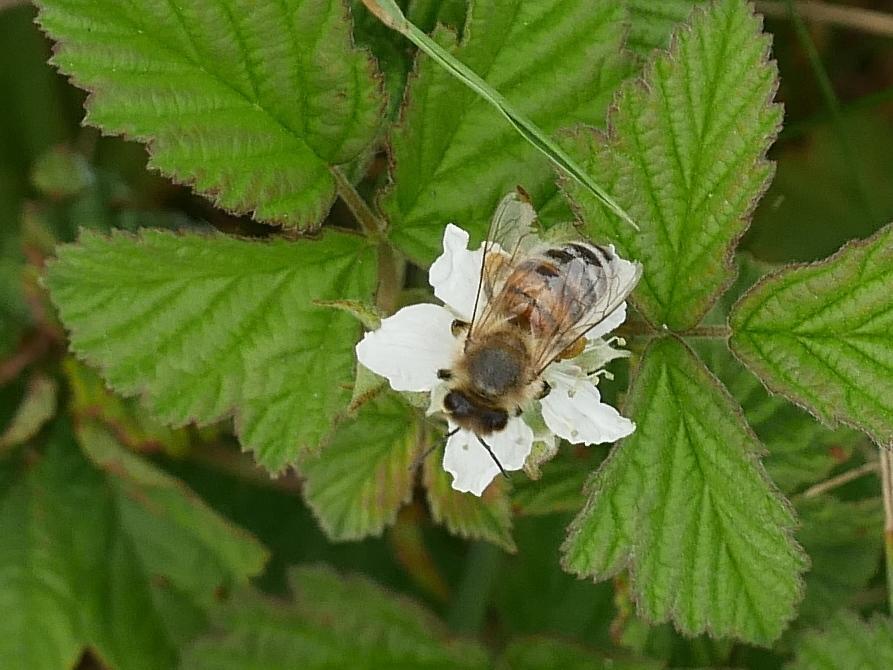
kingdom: Animalia
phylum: Arthropoda
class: Insecta
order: Hymenoptera
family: Apidae
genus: Apis
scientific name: Apis mellifera
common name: Honey bee
